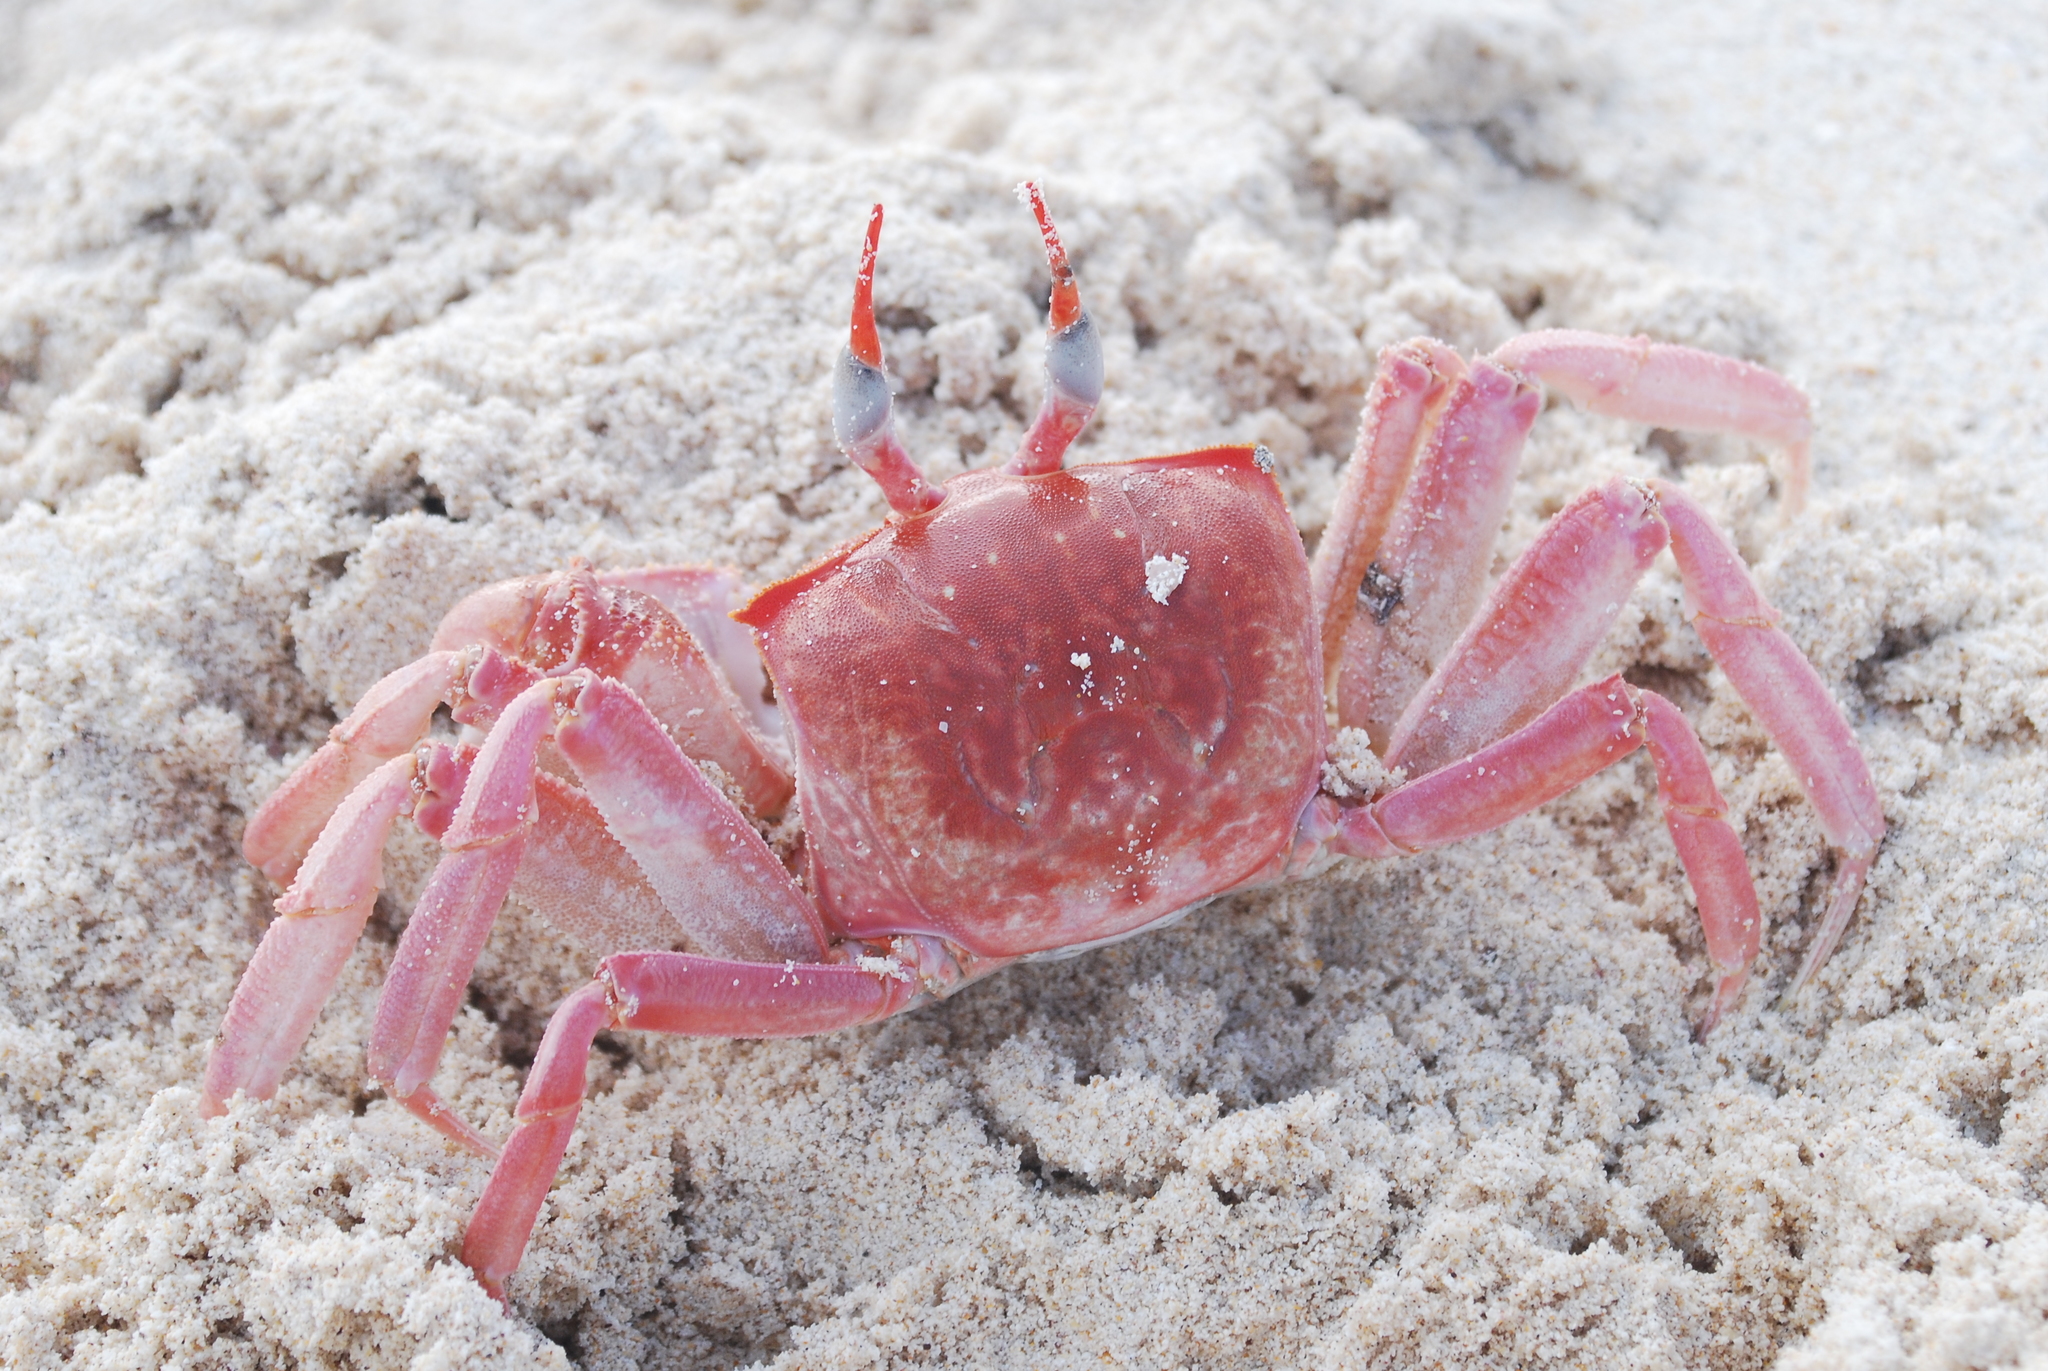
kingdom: Animalia
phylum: Arthropoda
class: Malacostraca
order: Decapoda
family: Ocypodidae
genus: Ocypode
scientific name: Ocypode gaudichaudii
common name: Pacific ghost crab
